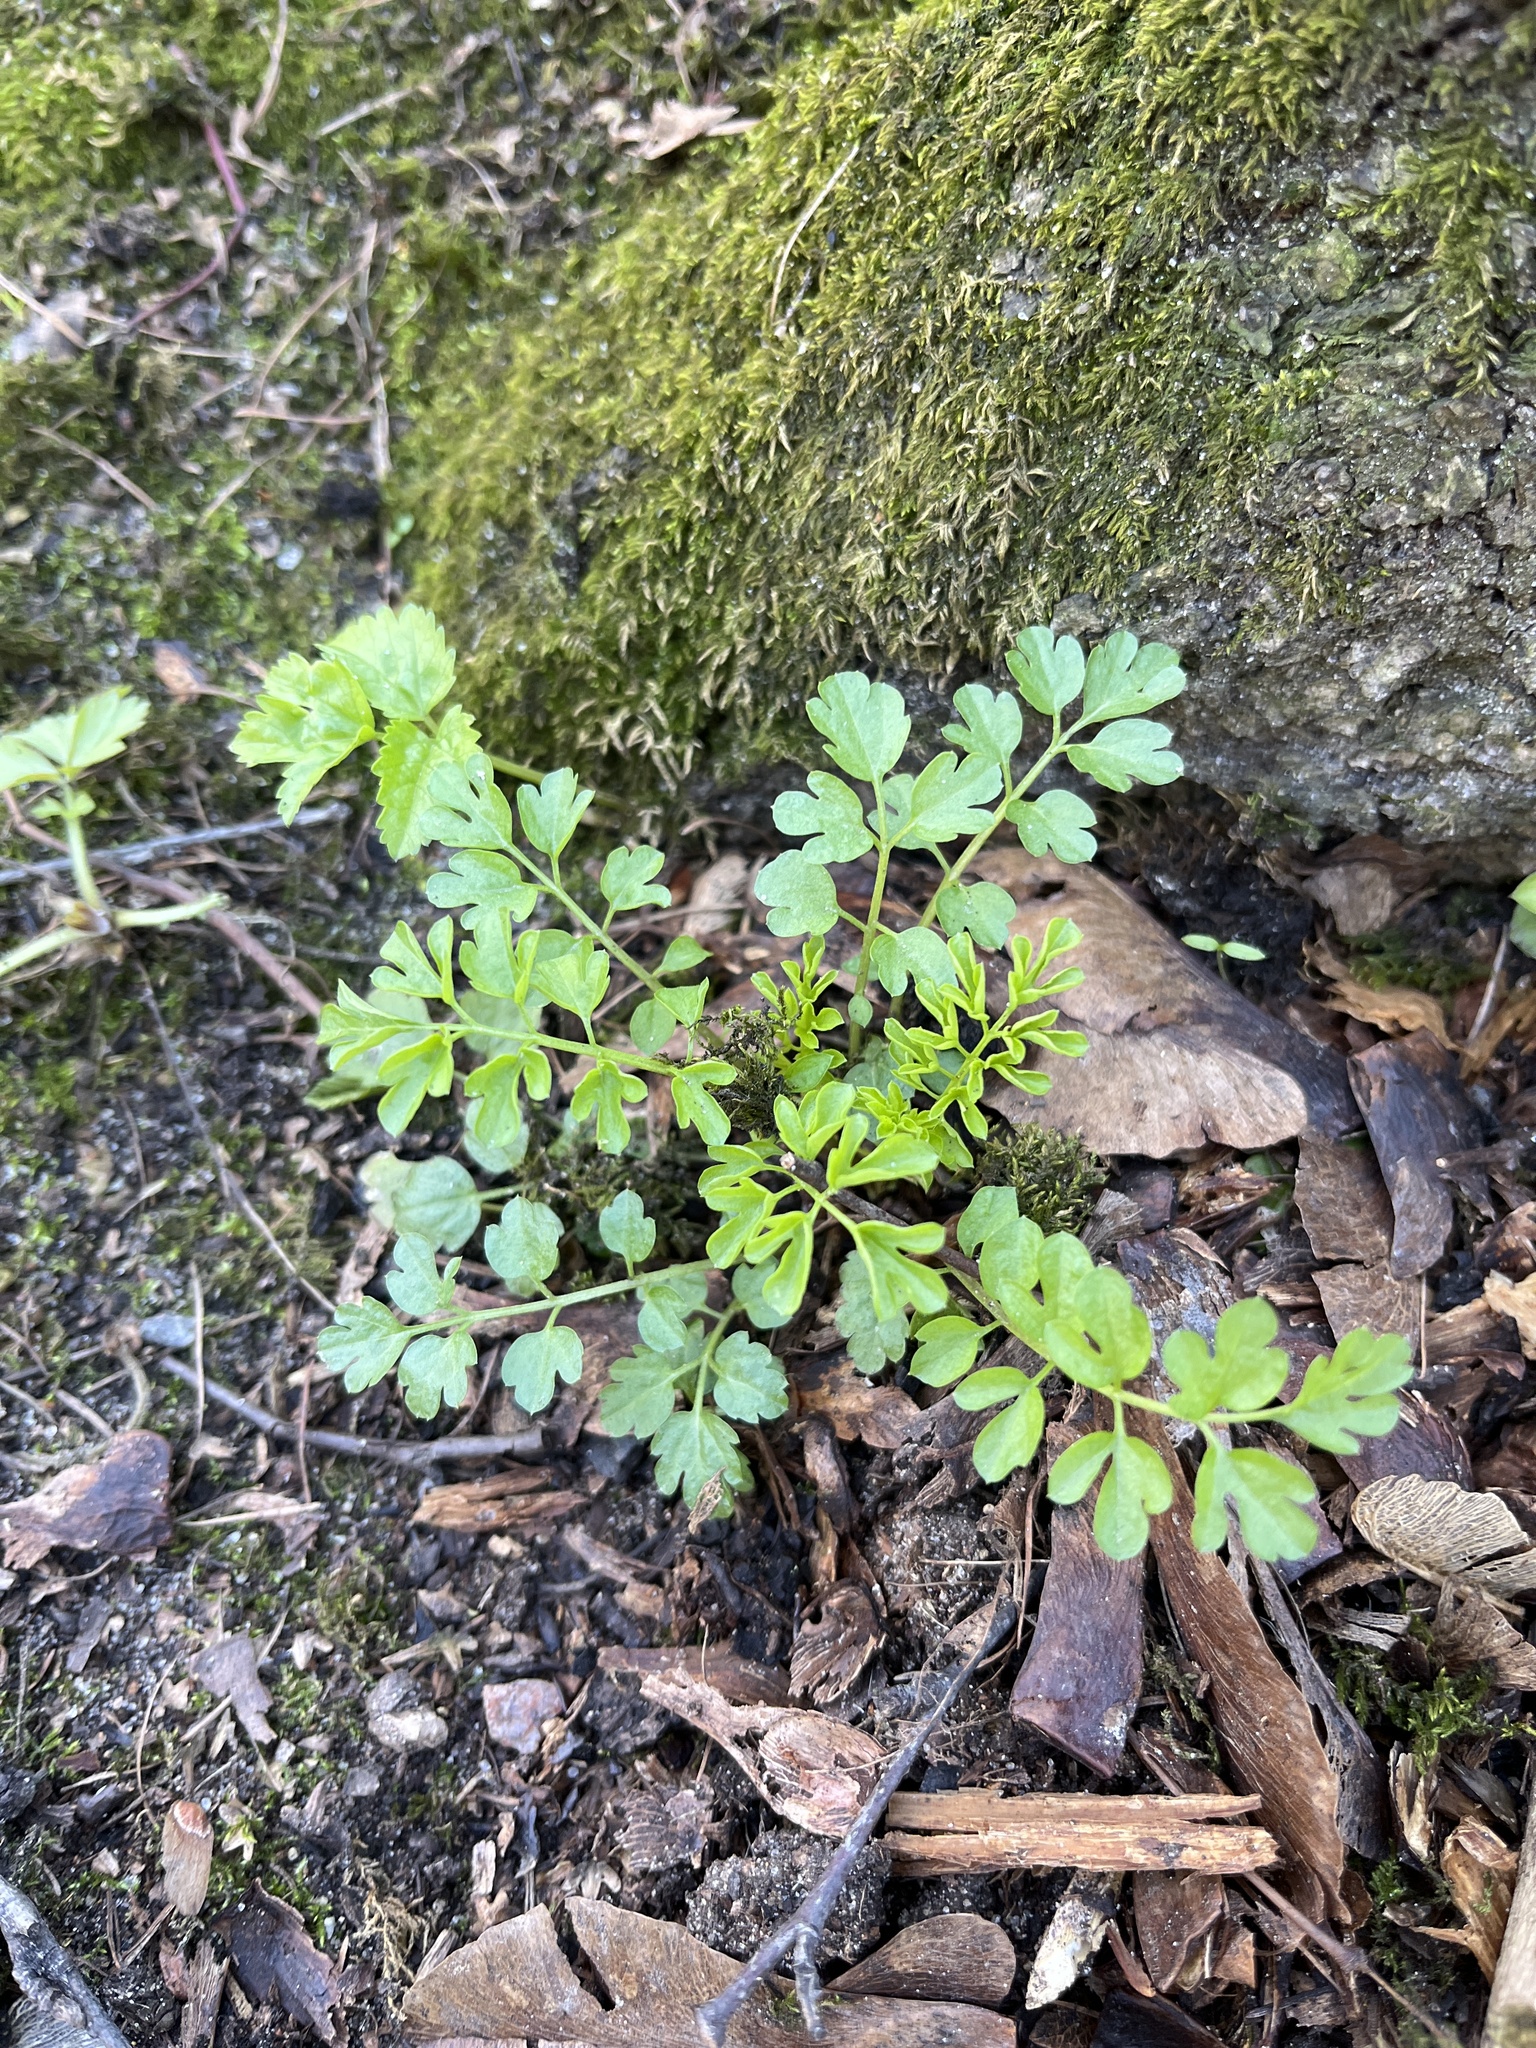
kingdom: Plantae
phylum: Tracheophyta
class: Magnoliopsida
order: Brassicales
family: Brassicaceae
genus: Cardamine
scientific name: Cardamine impatiens
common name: Narrow-leaved bitter-cress
